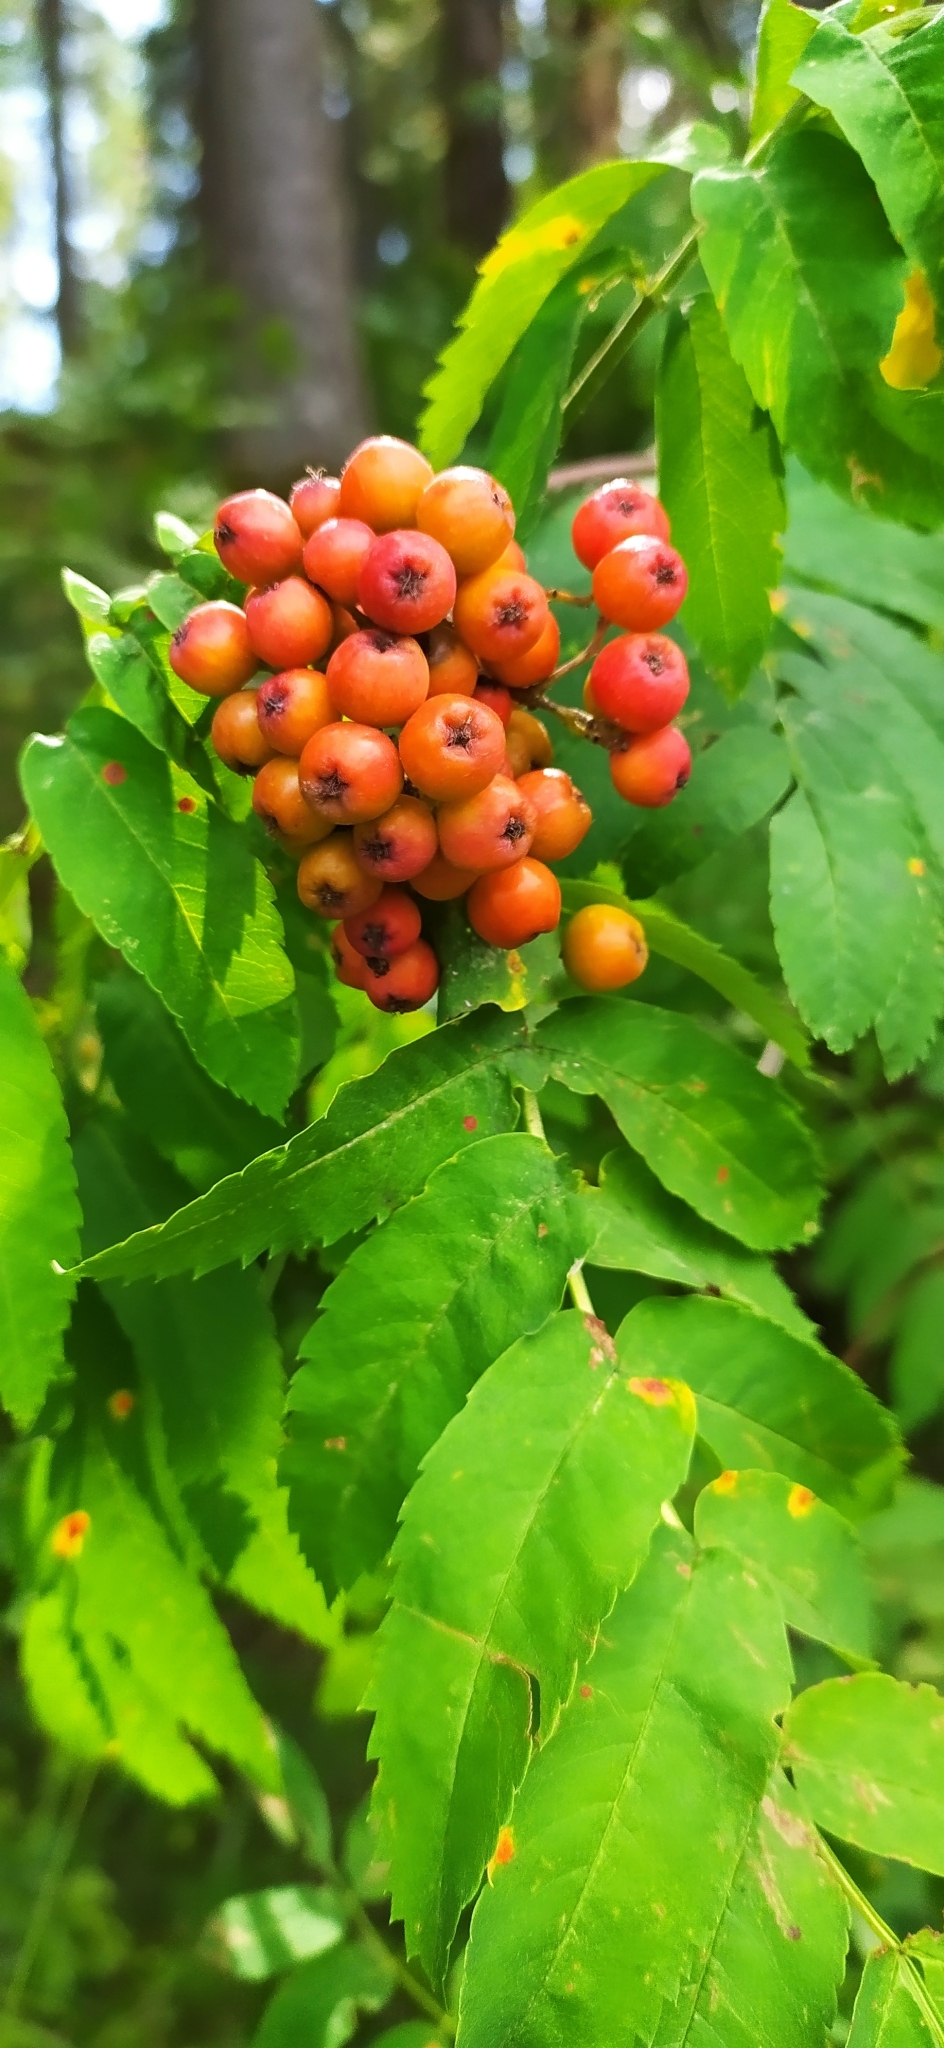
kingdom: Plantae
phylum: Tracheophyta
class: Magnoliopsida
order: Rosales
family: Rosaceae
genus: Sorbus
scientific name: Sorbus aucuparia
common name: Rowan
